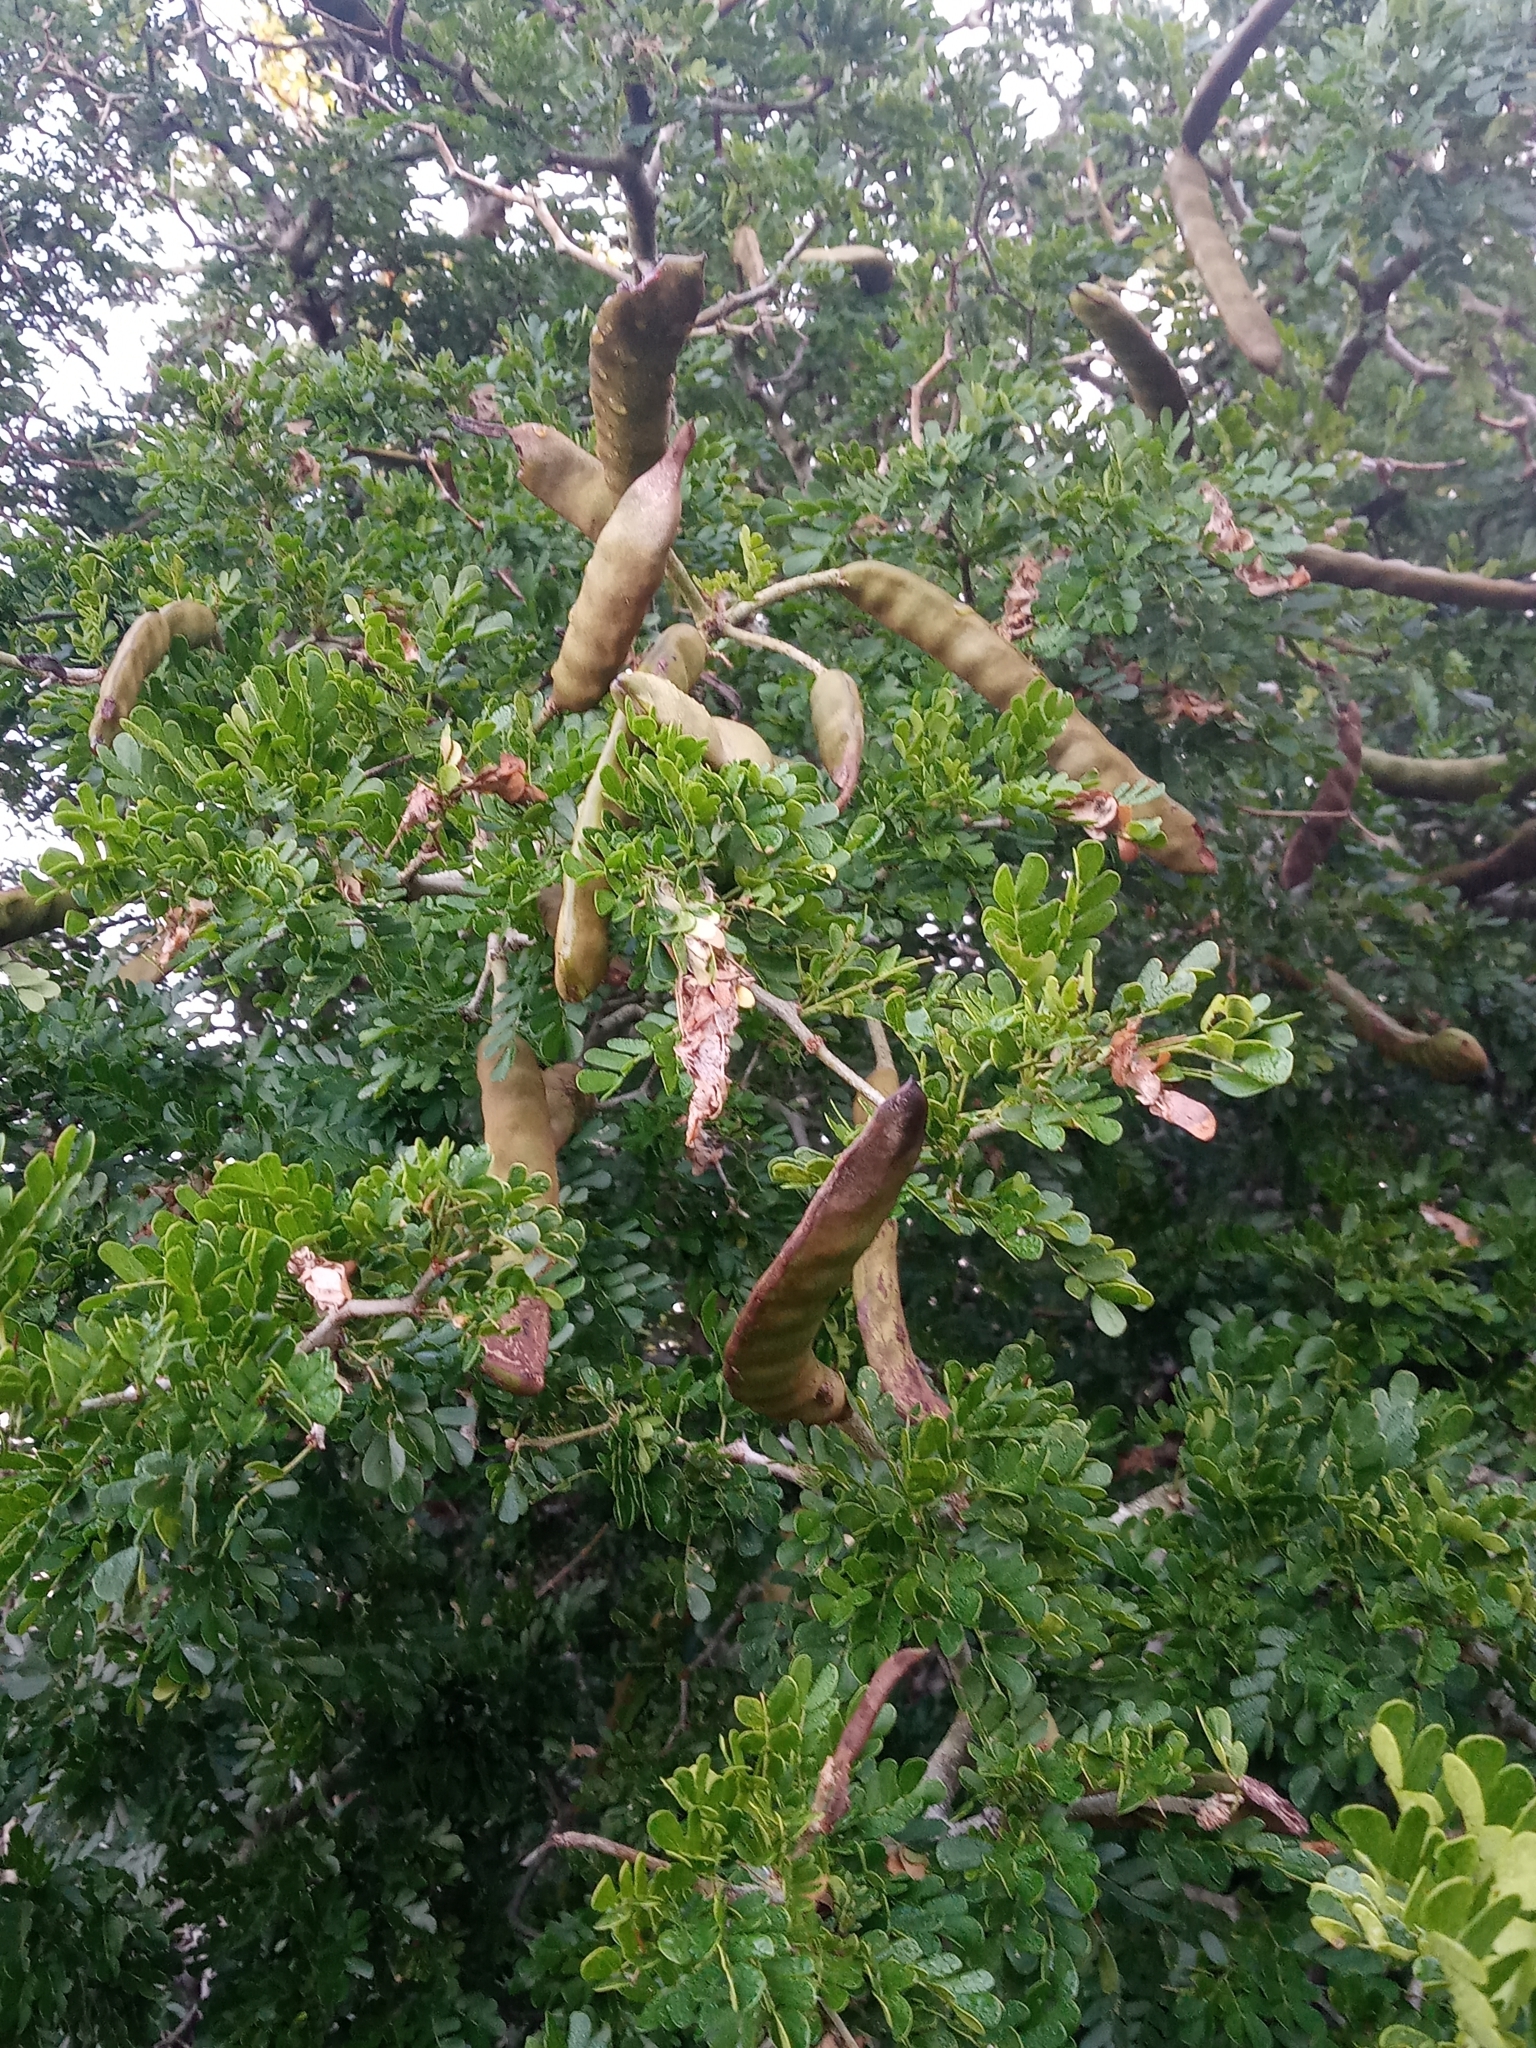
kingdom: Plantae
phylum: Tracheophyta
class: Magnoliopsida
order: Fabales
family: Fabaceae
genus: Ebenopsis
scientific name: Ebenopsis ebano
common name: Ebony blackbead
